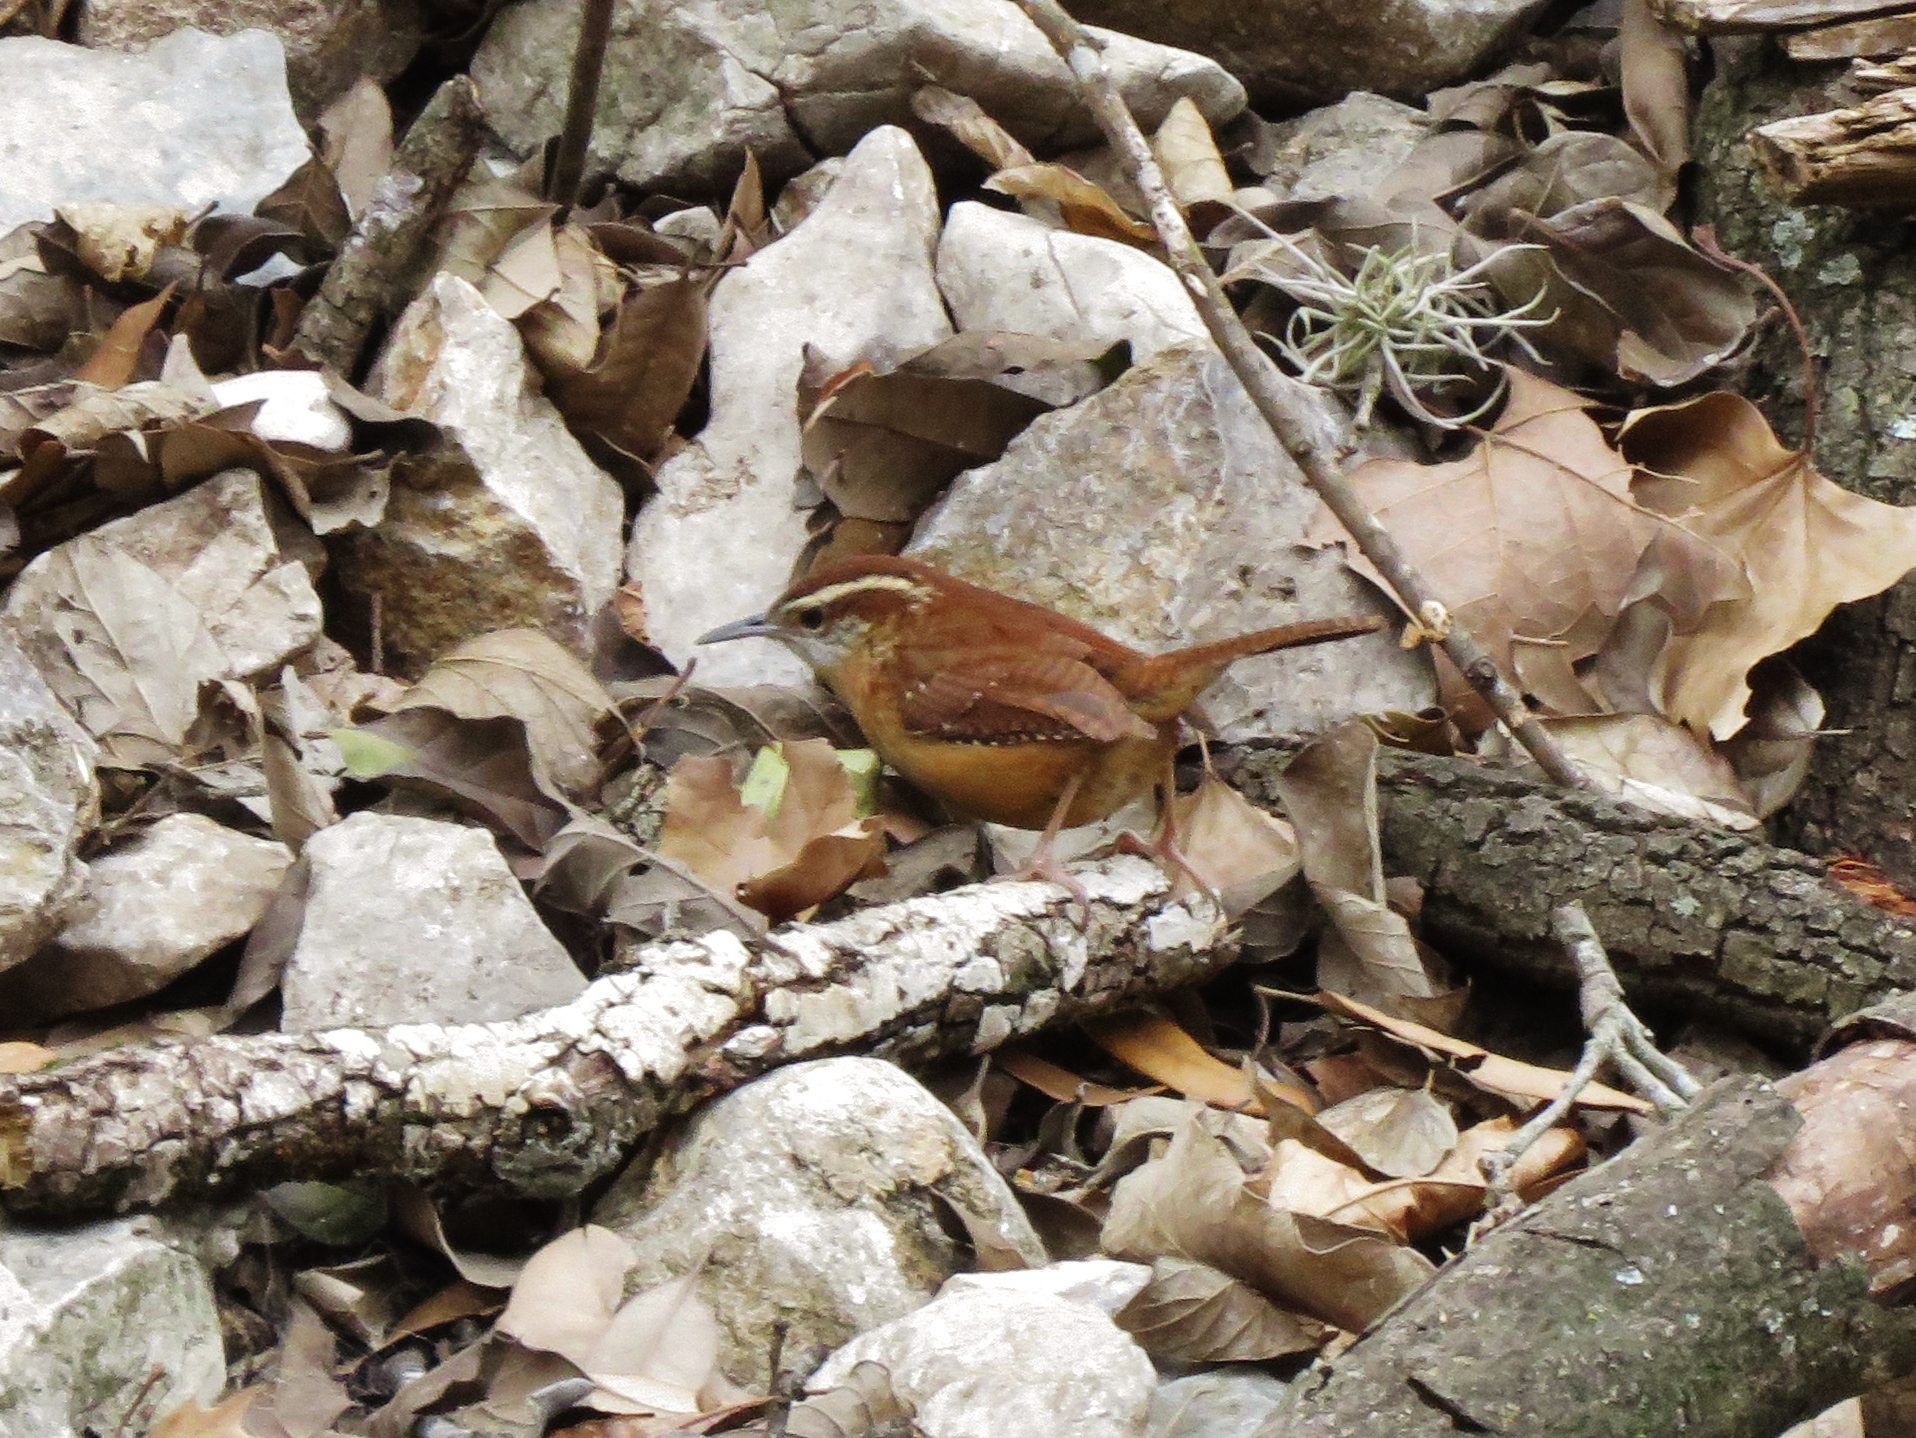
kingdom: Animalia
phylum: Chordata
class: Aves
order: Passeriformes
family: Troglodytidae
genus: Thryothorus
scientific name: Thryothorus ludovicianus
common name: Carolina wren
